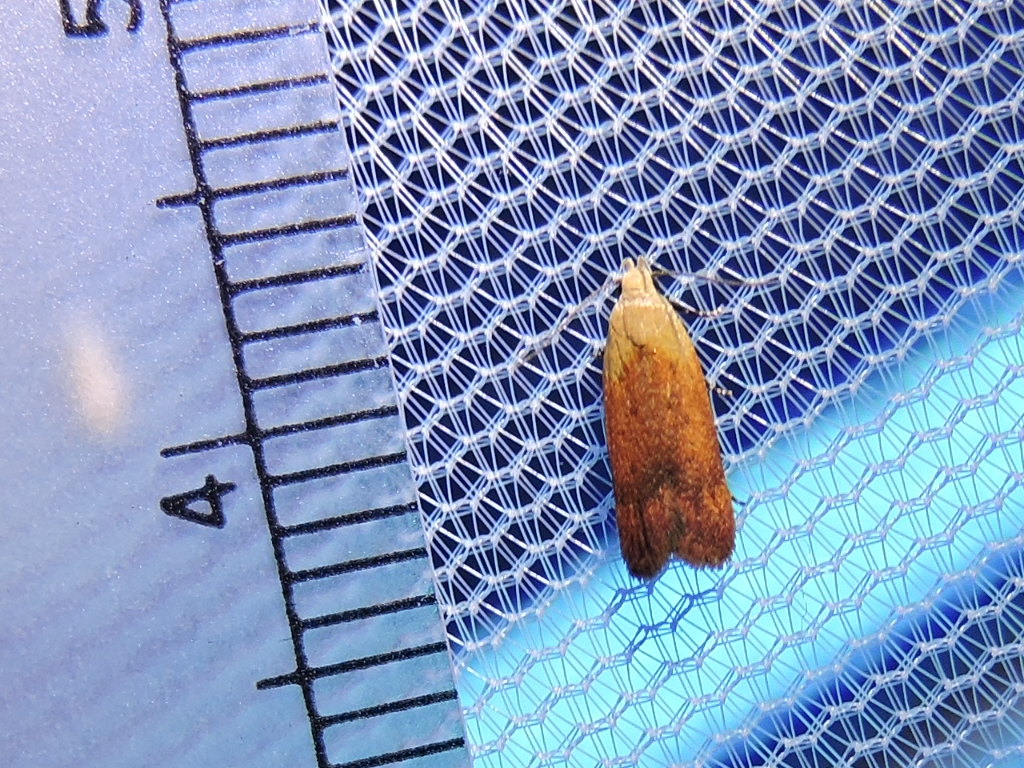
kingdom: Animalia
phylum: Arthropoda
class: Insecta
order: Lepidoptera
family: Gelechiidae
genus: Anacampsis
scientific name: Anacampsis fullonella
